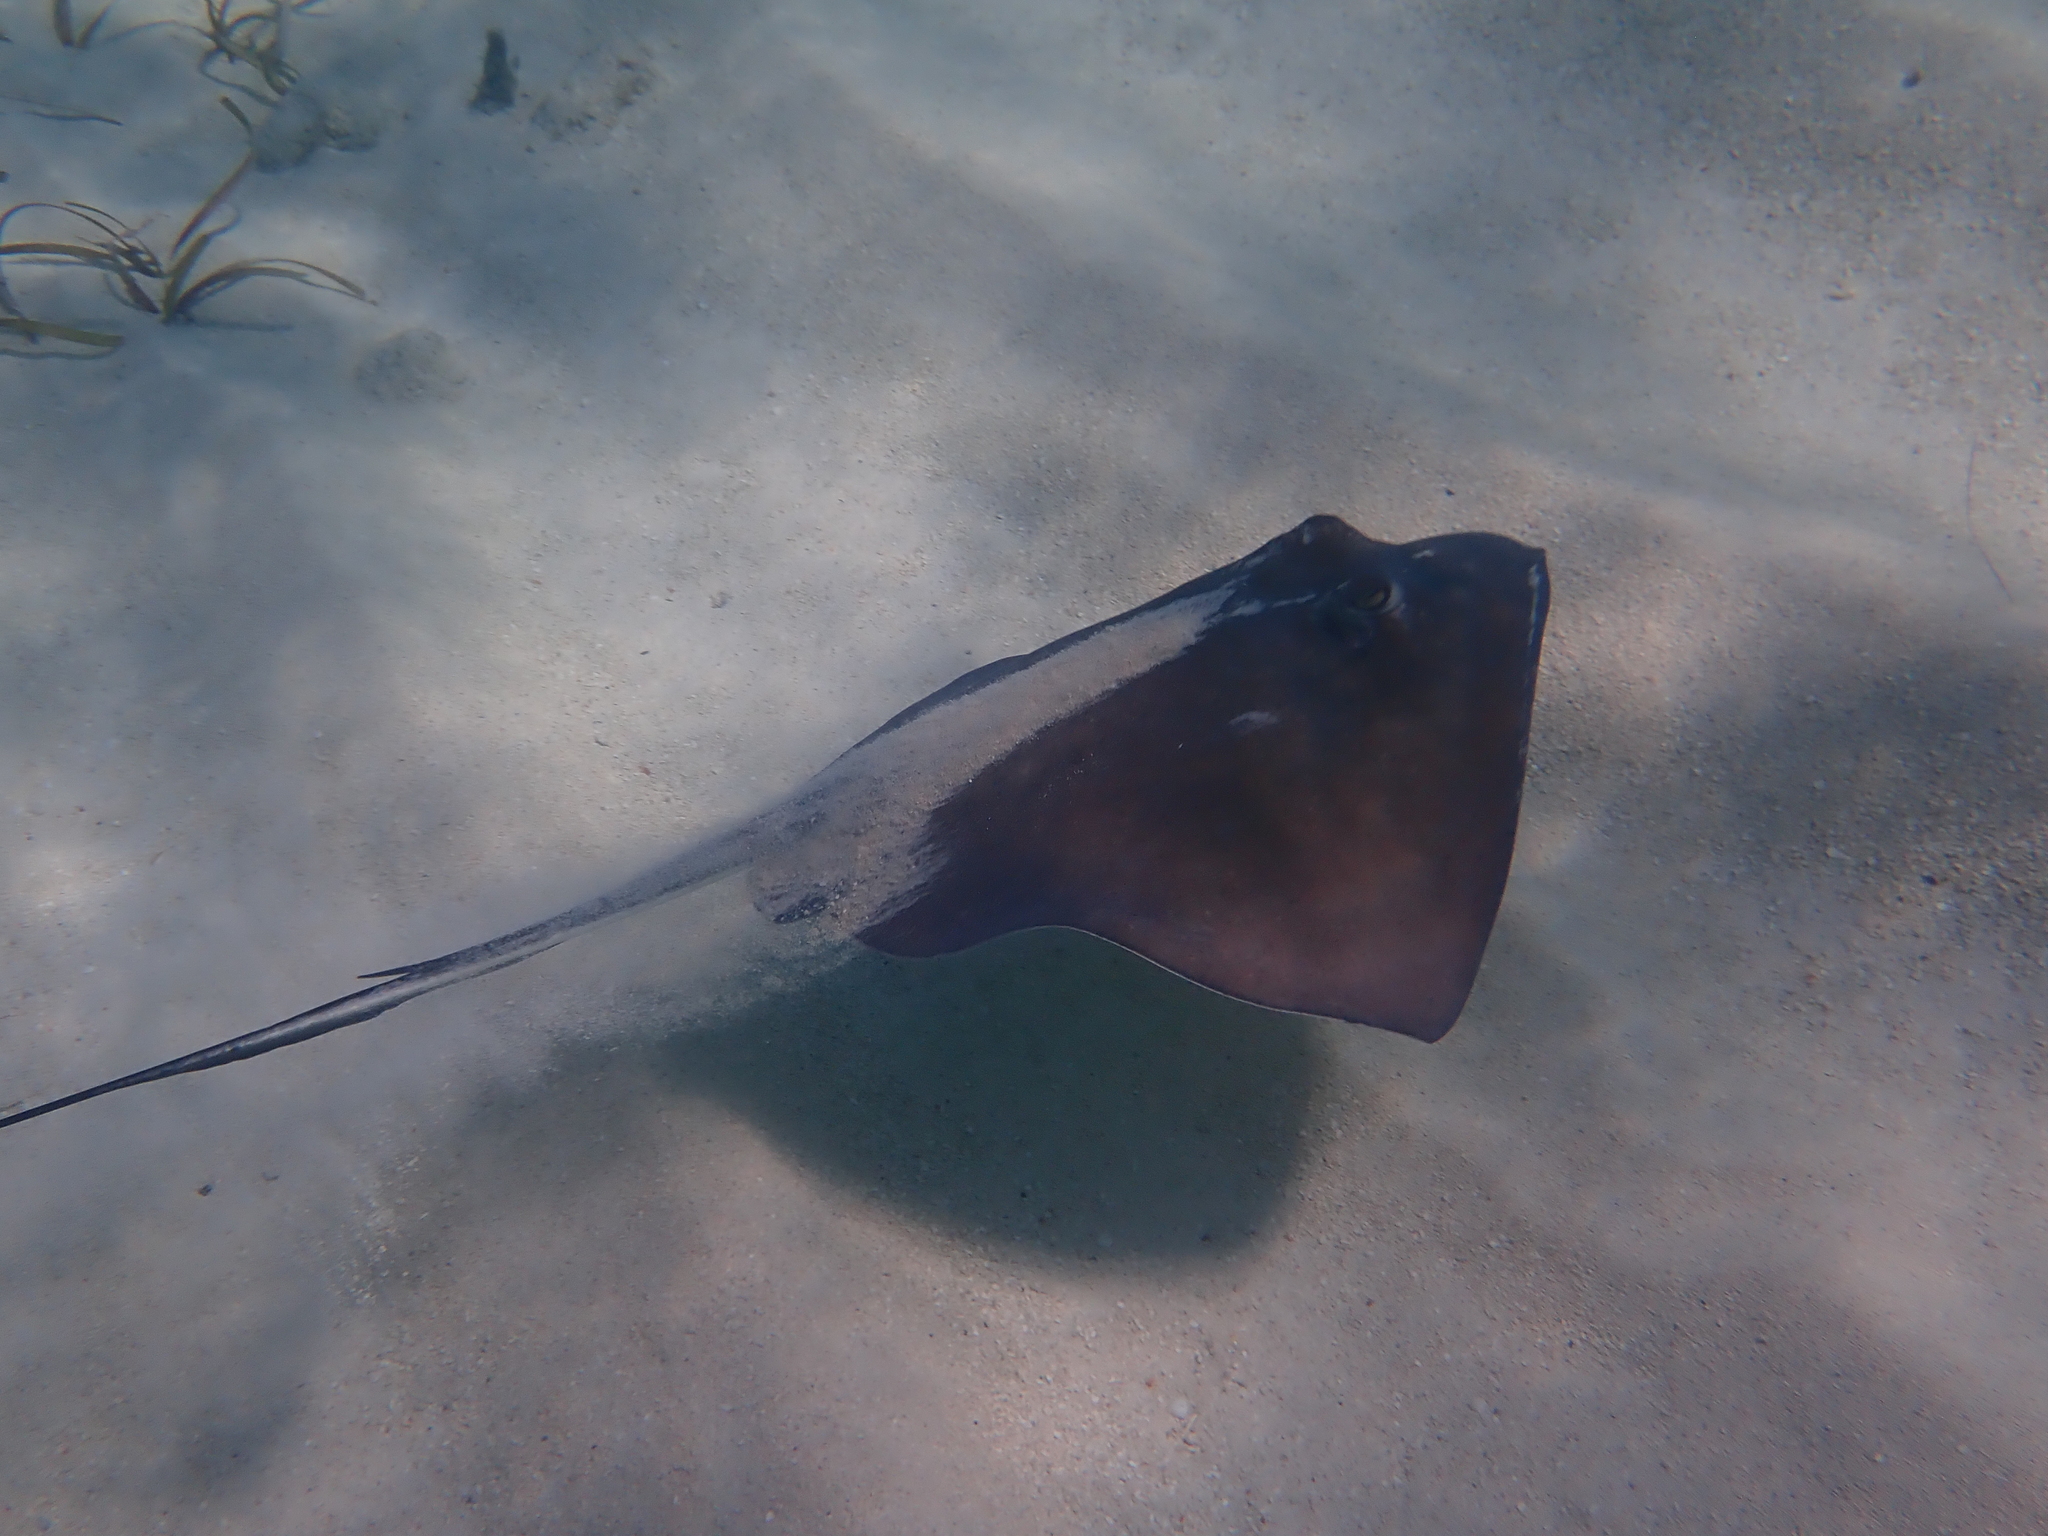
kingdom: Animalia
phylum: Chordata
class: Elasmobranchii
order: Myliobatiformes
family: Dasyatidae
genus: Hypanus
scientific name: Hypanus americanus
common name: Southern stingray
